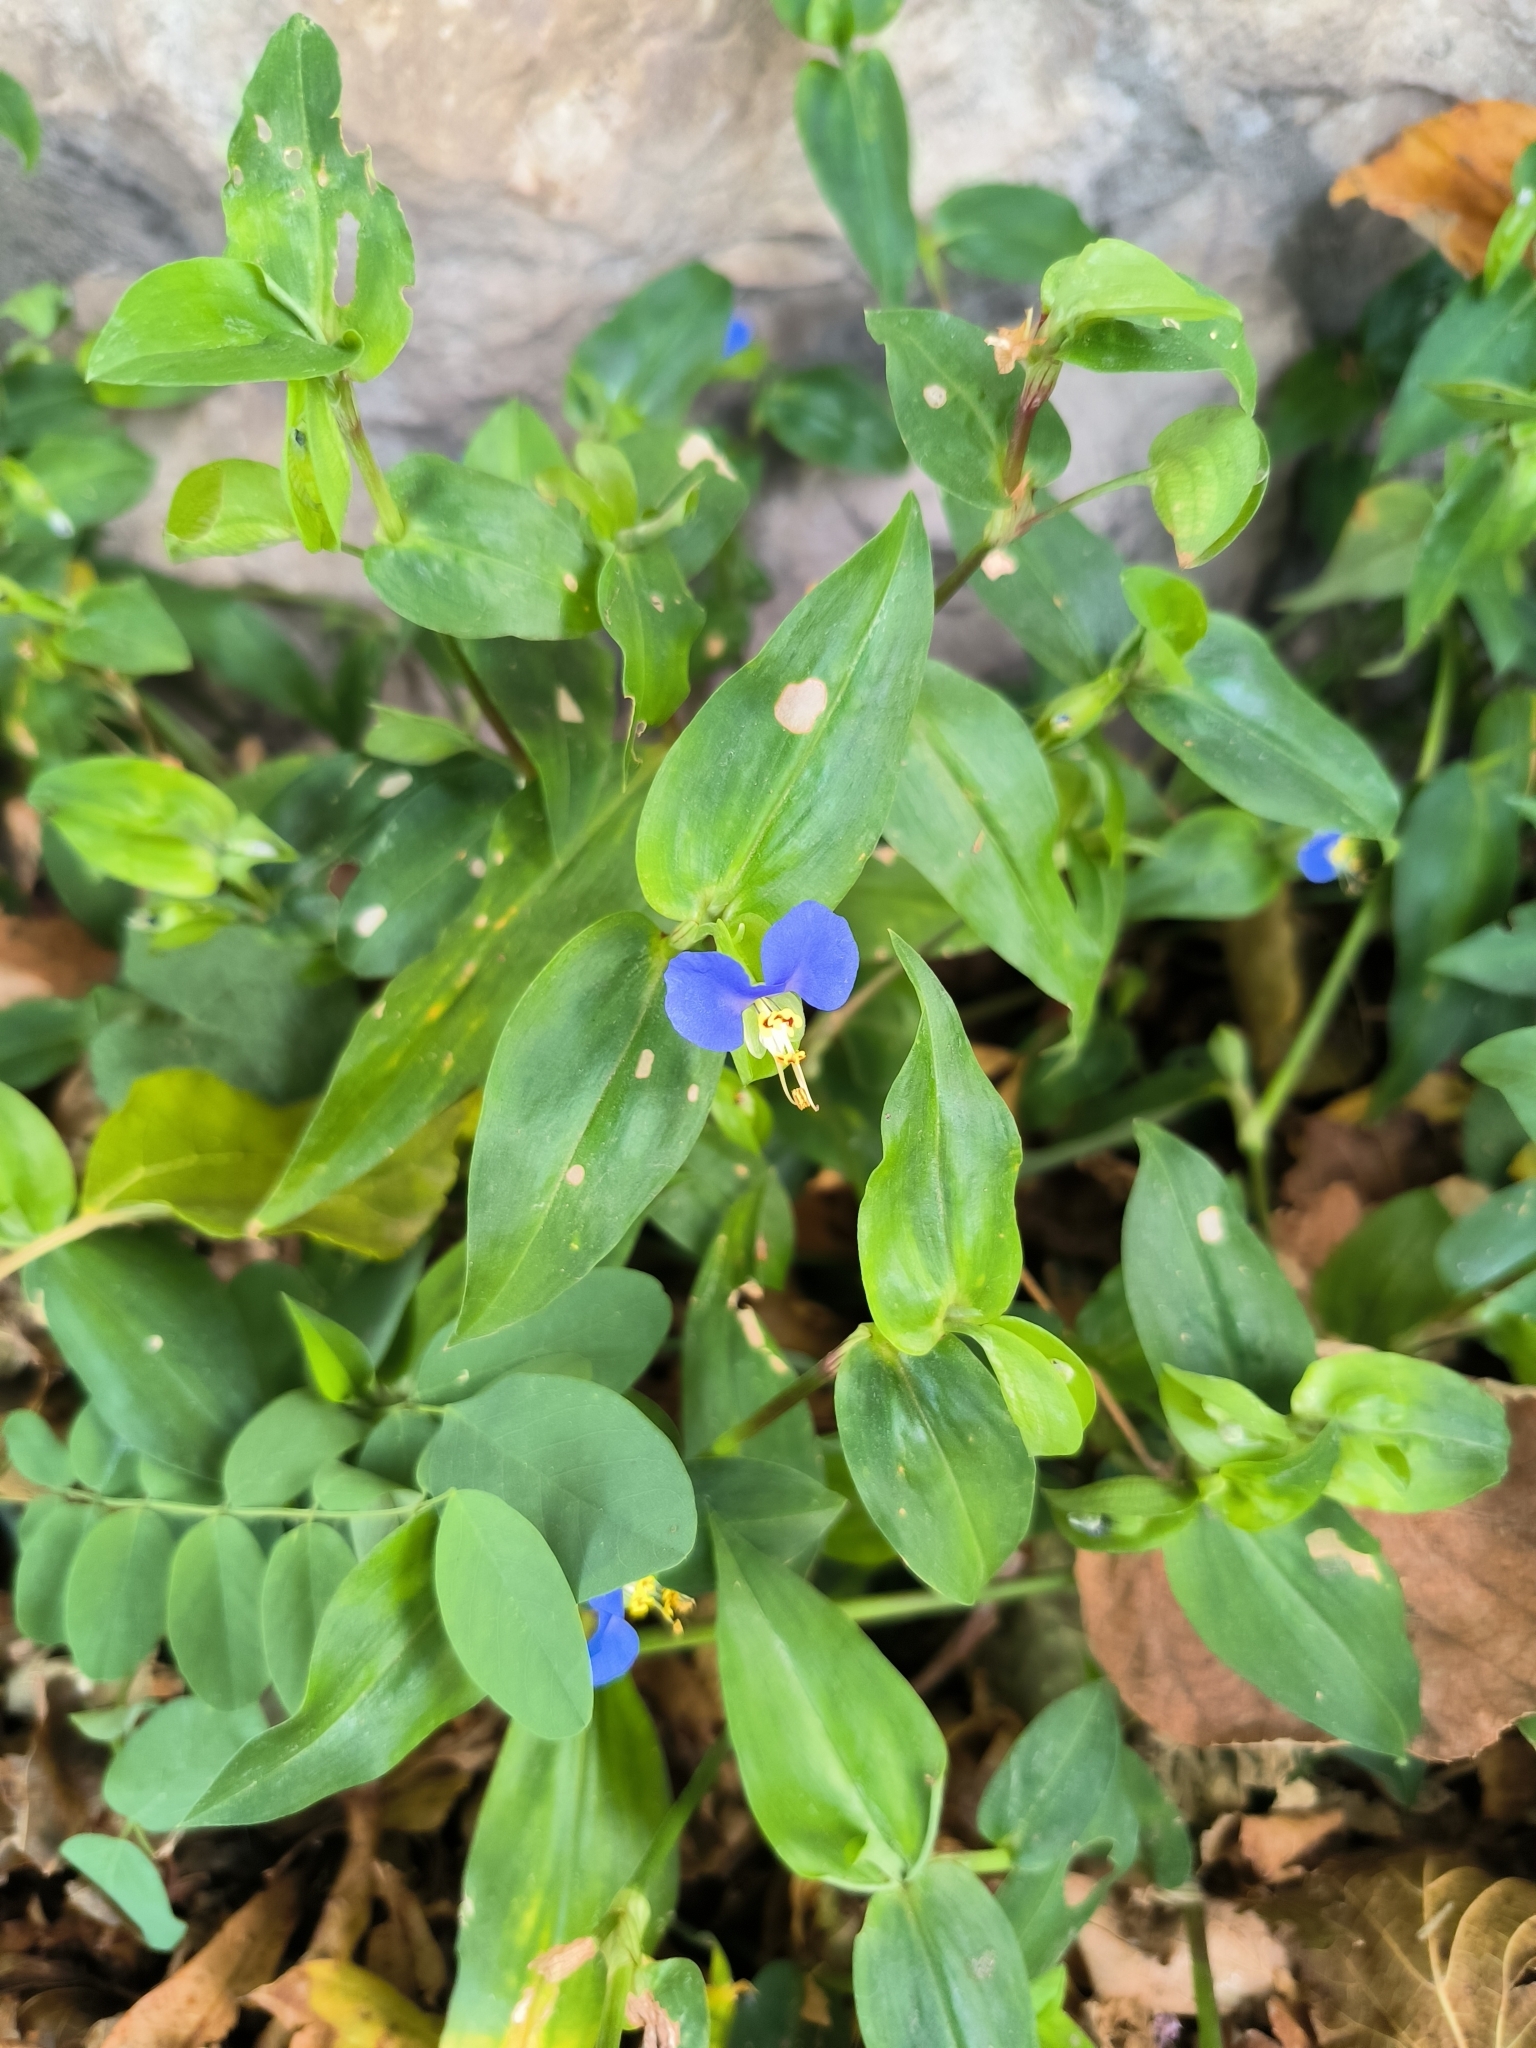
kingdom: Plantae
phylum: Tracheophyta
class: Liliopsida
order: Commelinales
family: Commelinaceae
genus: Commelina
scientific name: Commelina communis
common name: Asiatic dayflower
